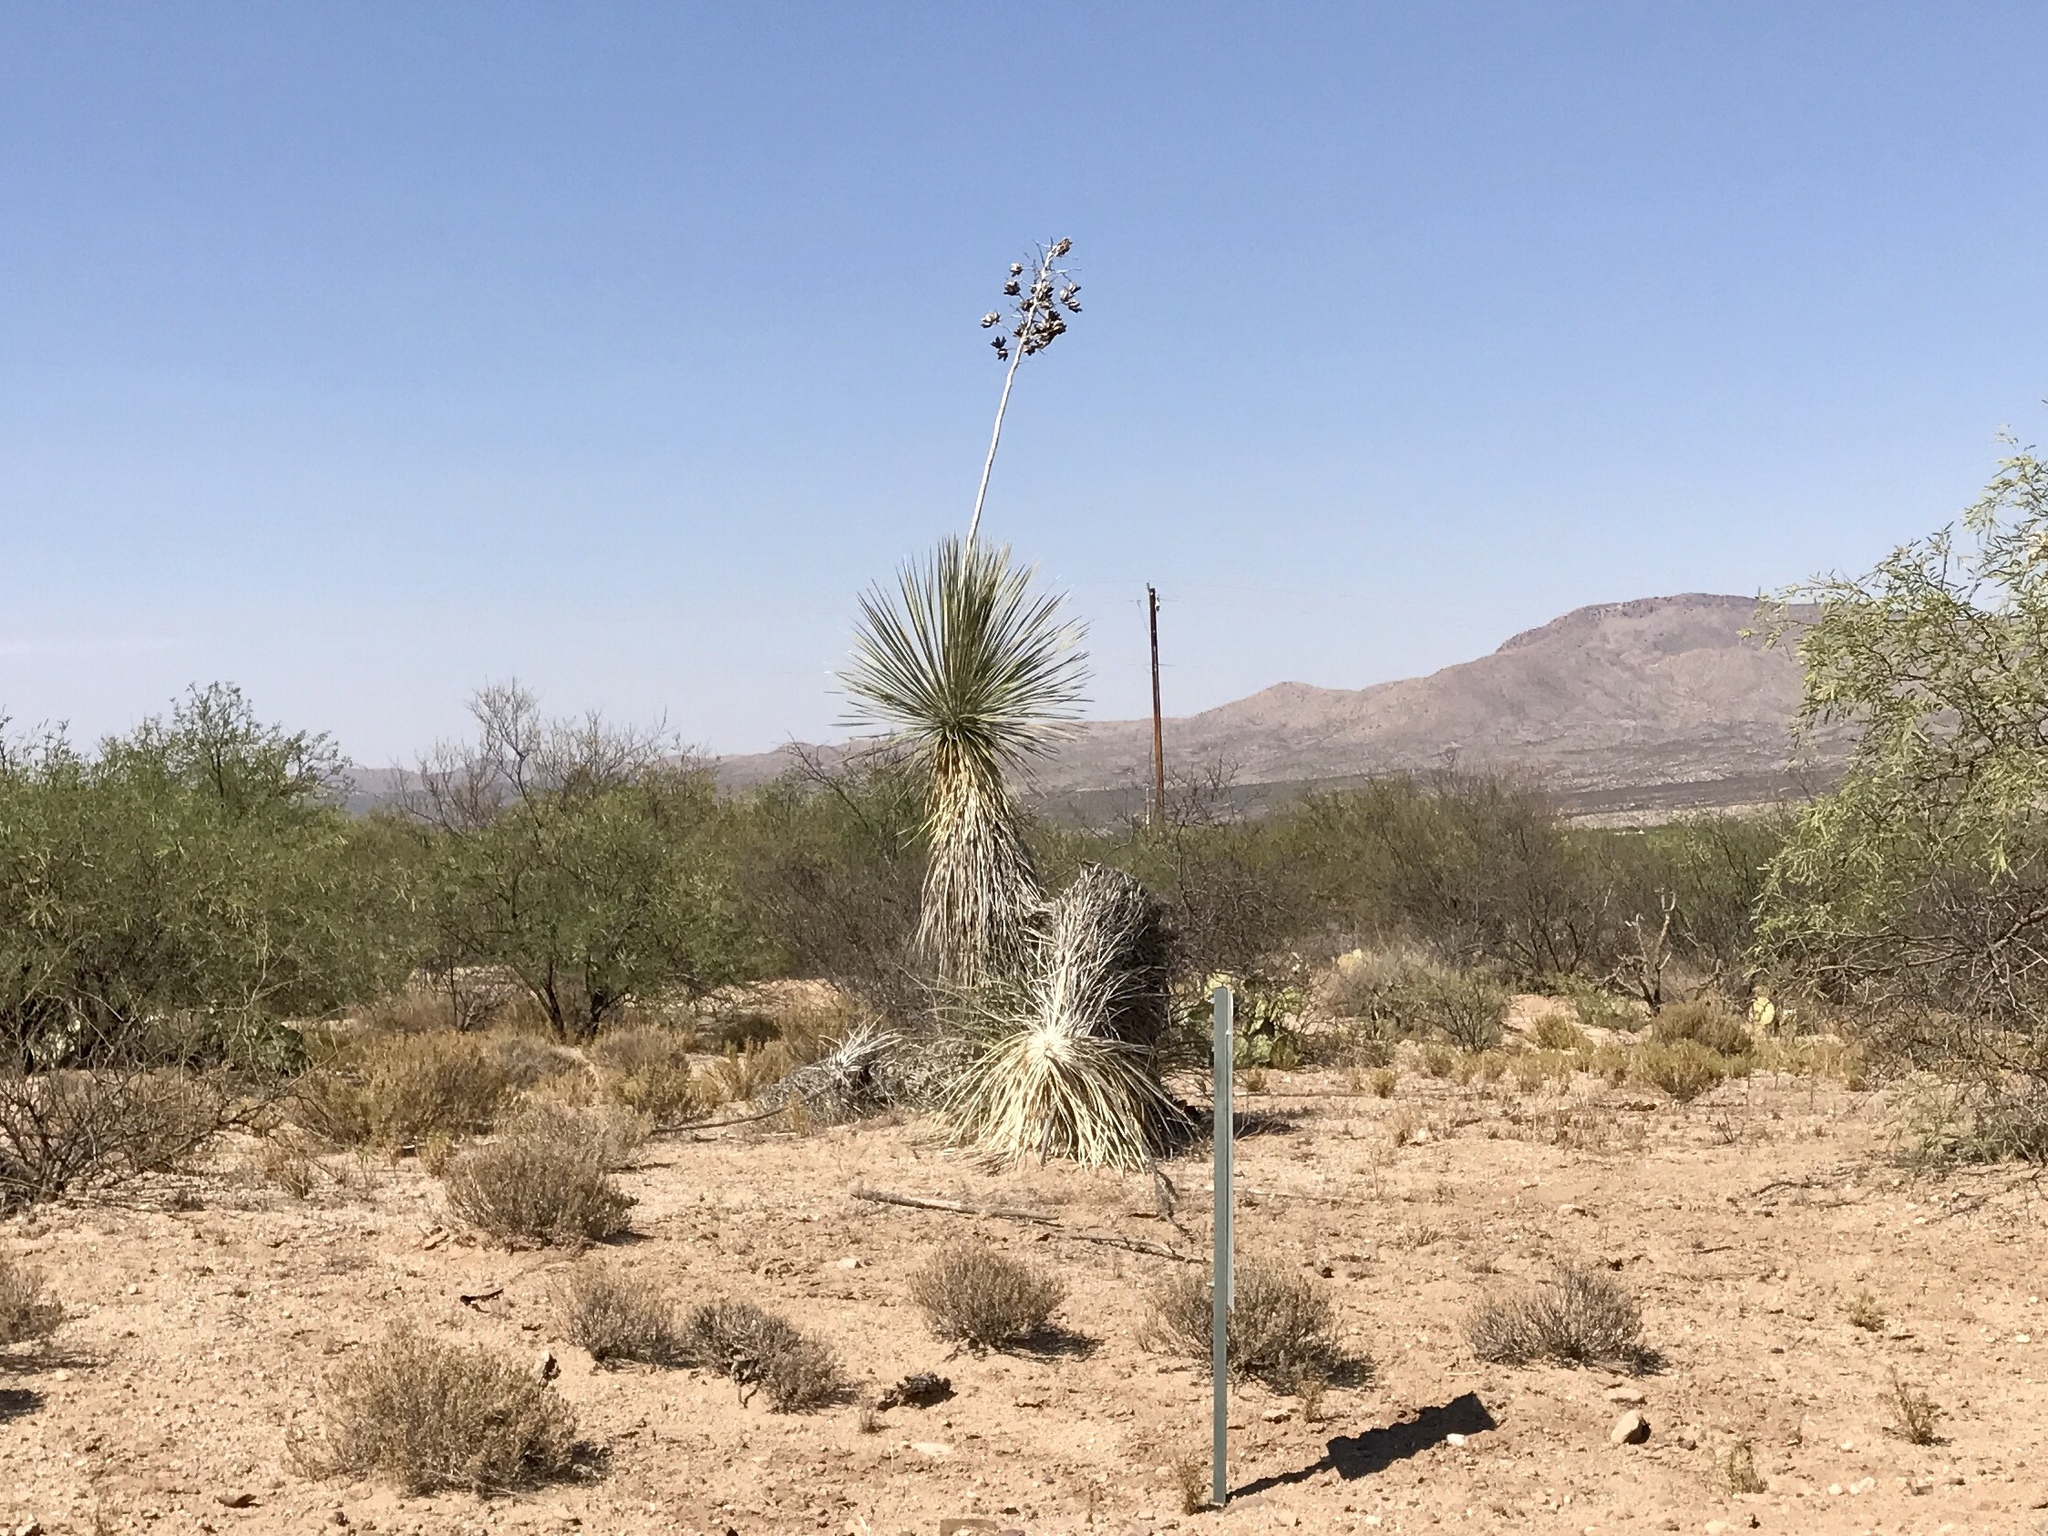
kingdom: Plantae
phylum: Tracheophyta
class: Liliopsida
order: Asparagales
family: Asparagaceae
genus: Yucca
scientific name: Yucca elata
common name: Palmella
